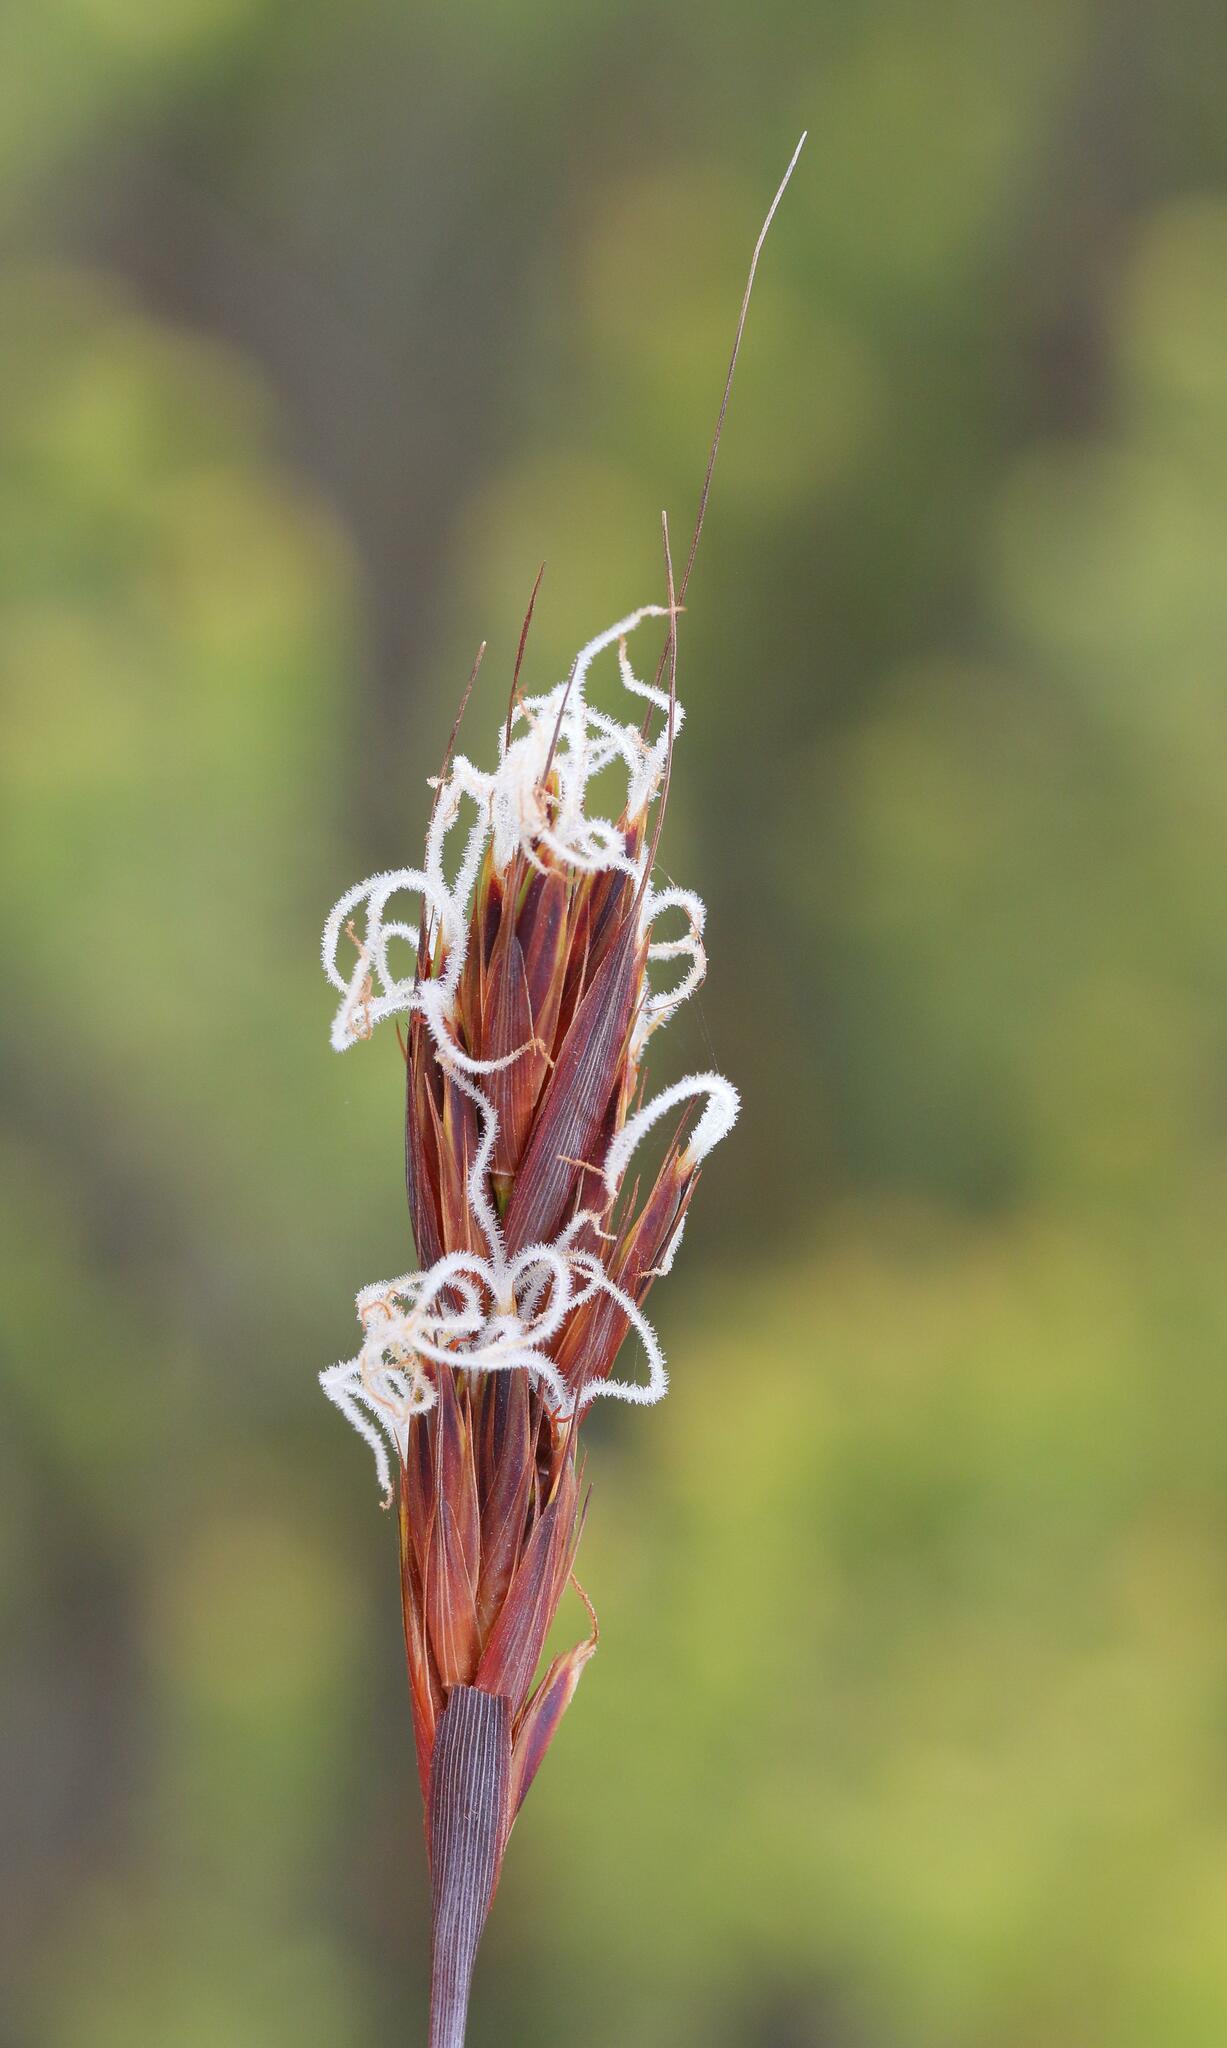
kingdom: Plantae
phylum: Tracheophyta
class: Liliopsida
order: Poales
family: Cyperaceae
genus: Tetraria
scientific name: Tetraria ustulata
